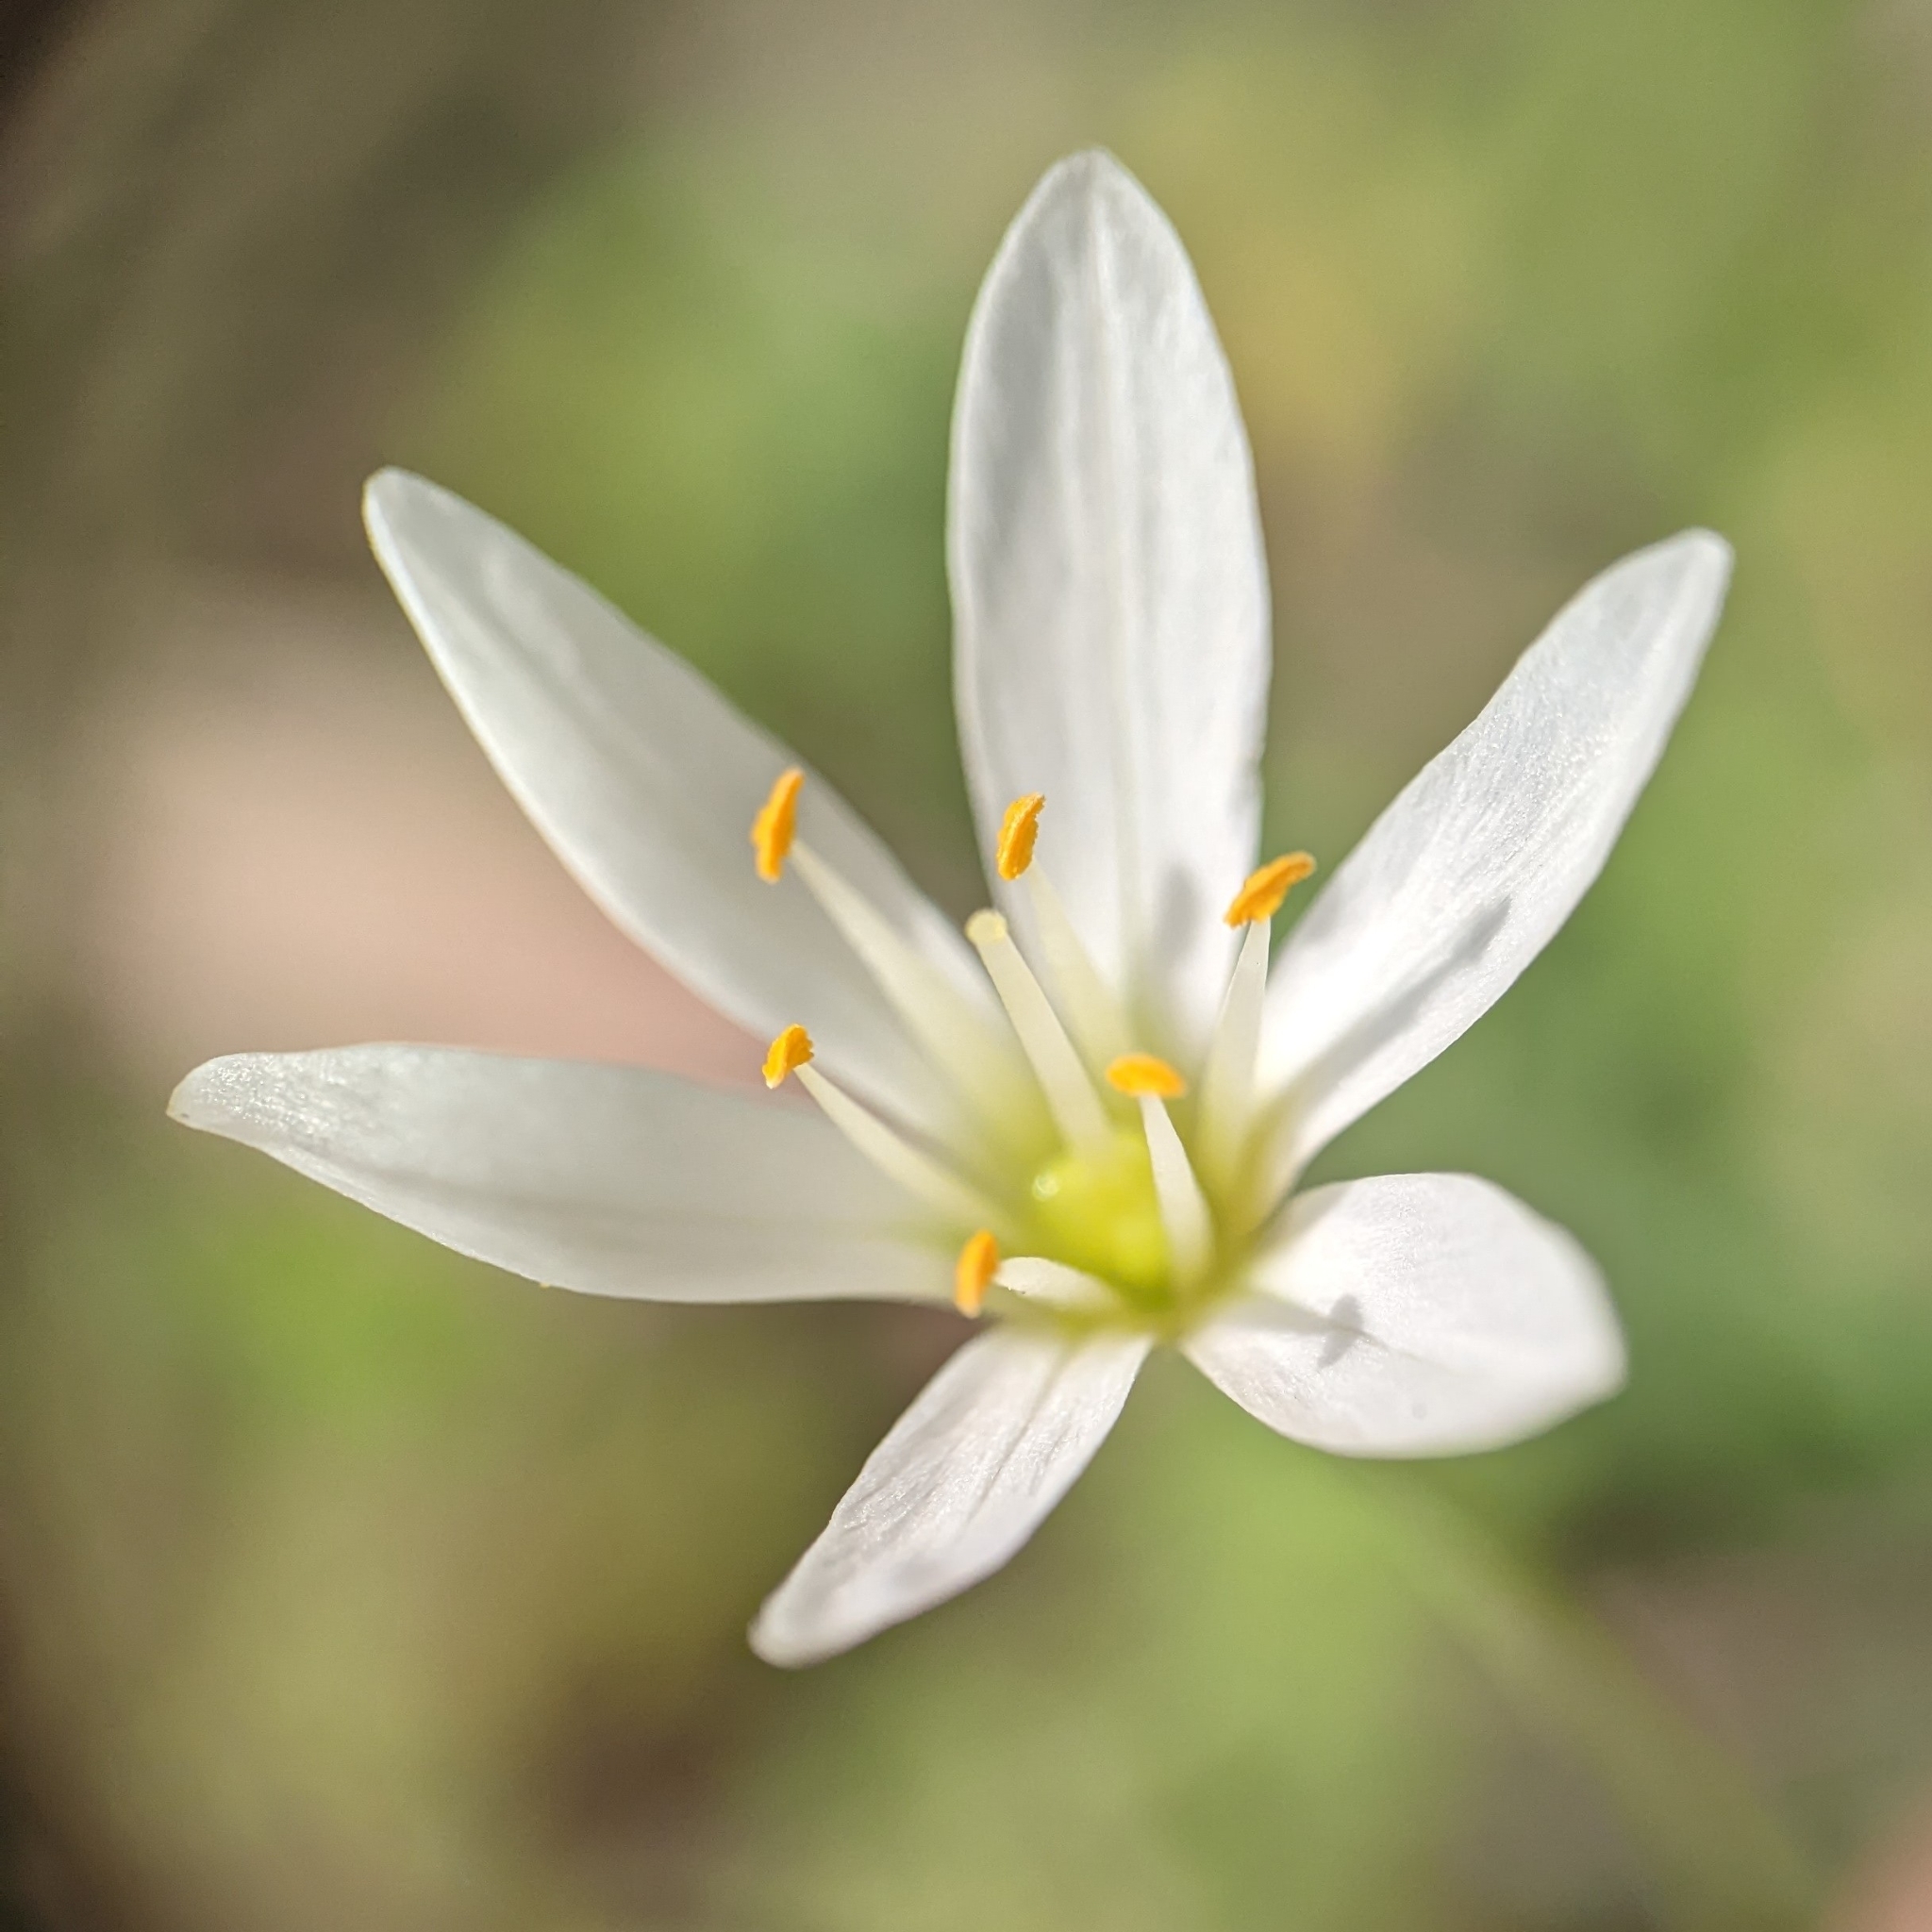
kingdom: Plantae
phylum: Tracheophyta
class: Liliopsida
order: Asparagales
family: Amaryllidaceae
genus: Nothoscordum
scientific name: Nothoscordum bivalve
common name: Crow-poison
